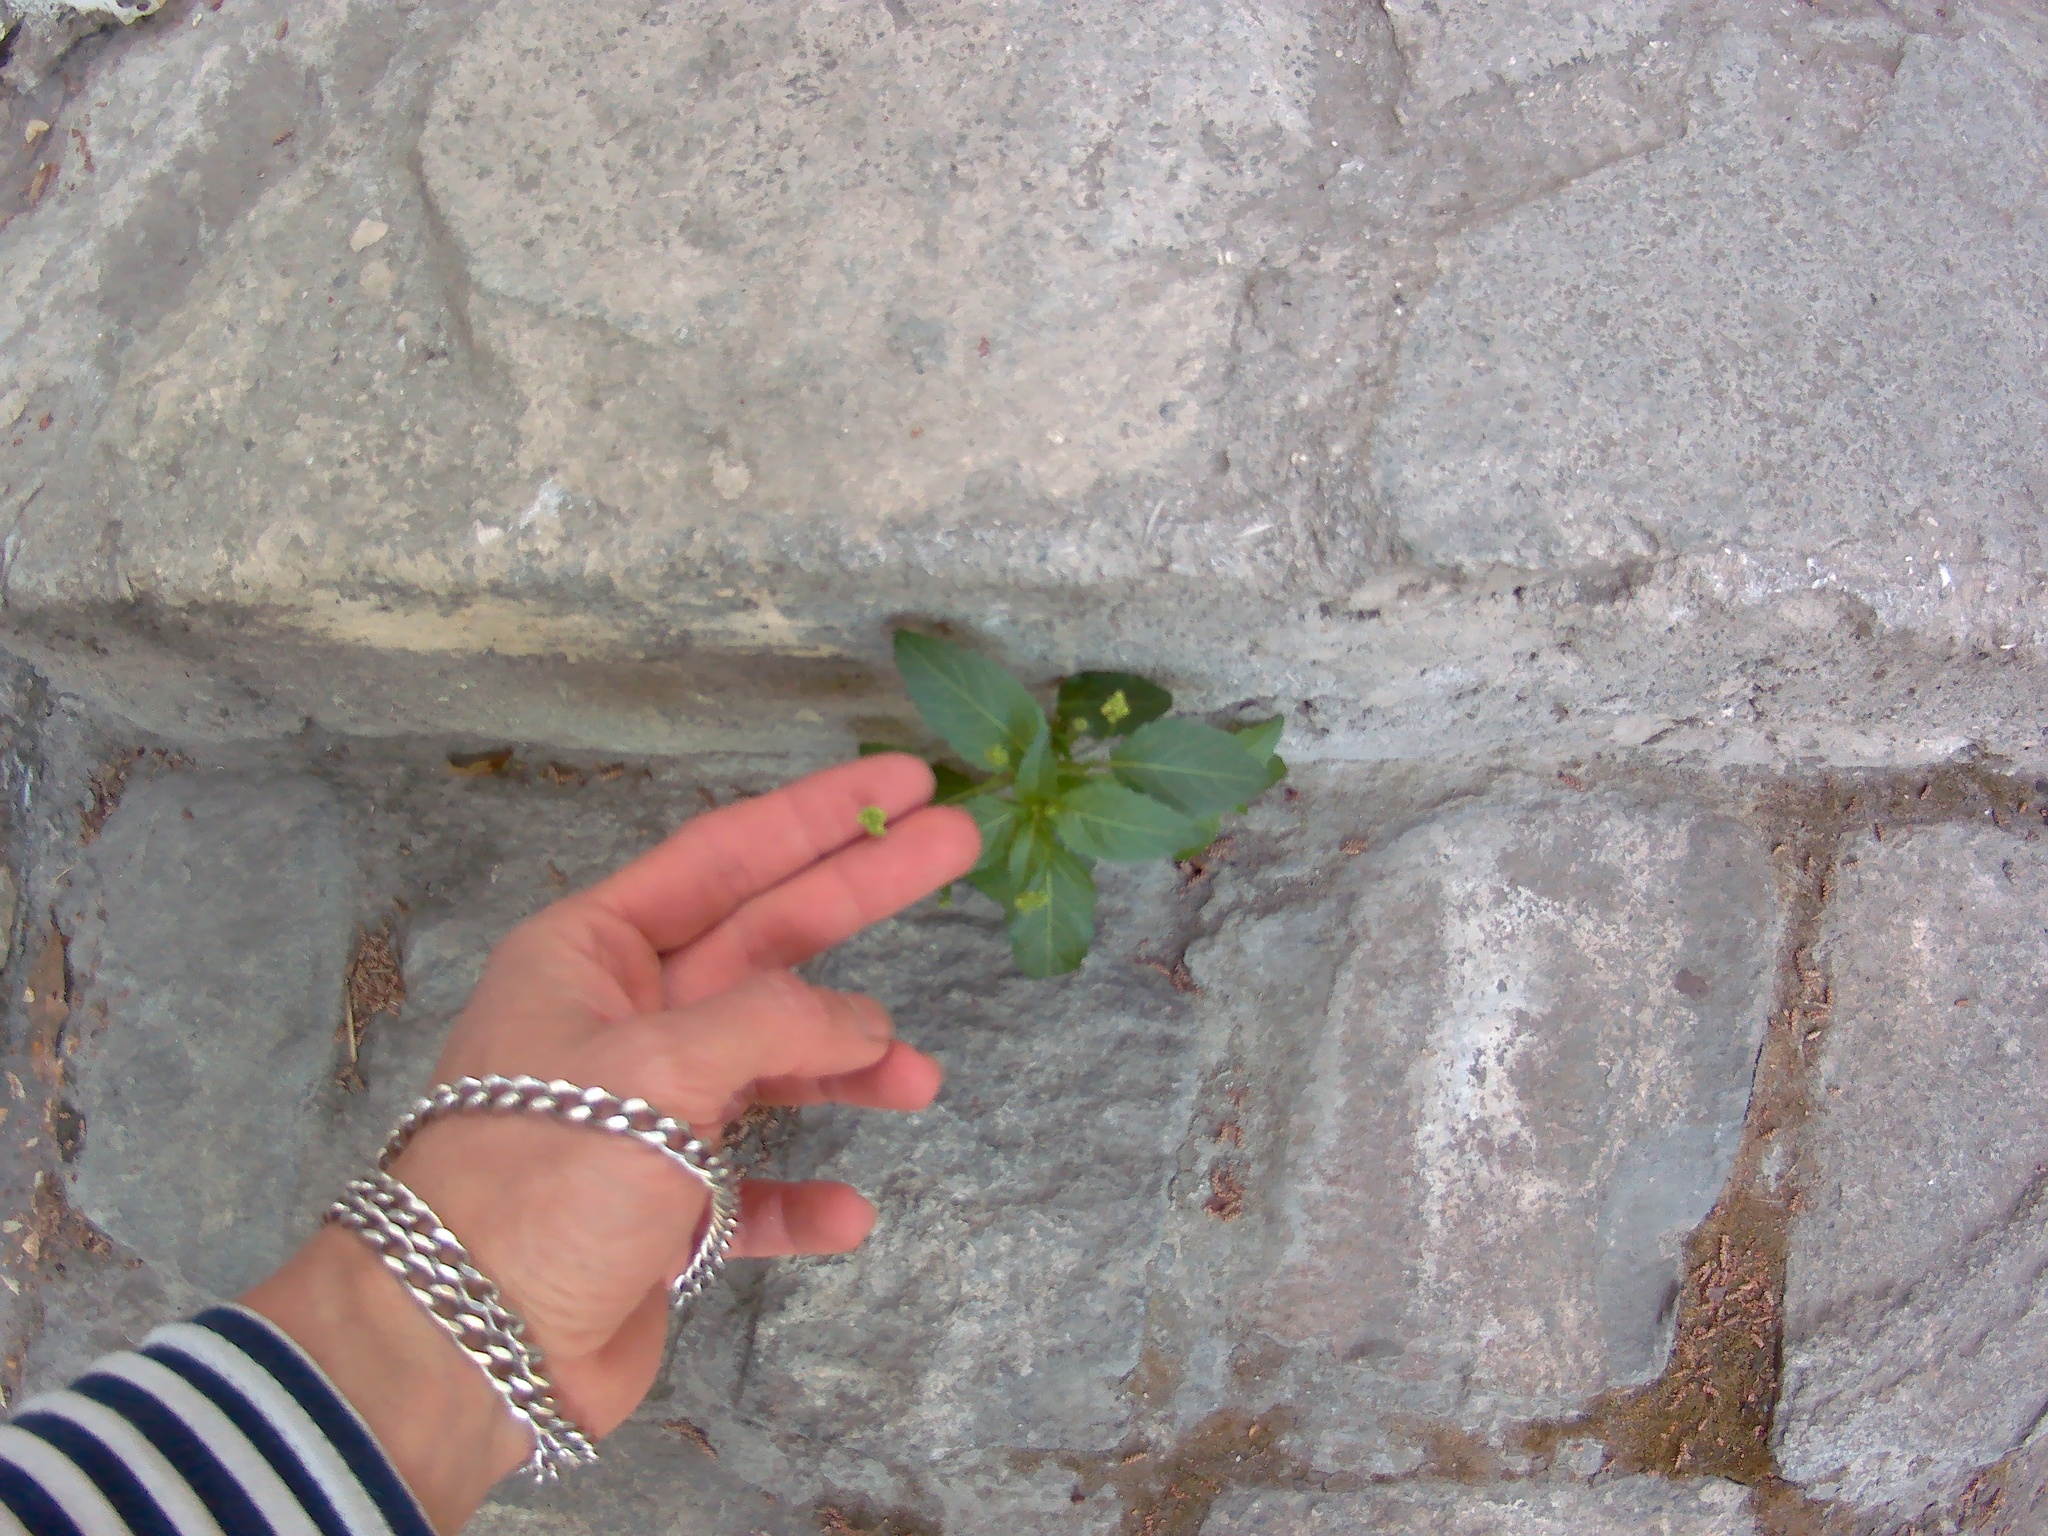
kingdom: Plantae
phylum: Tracheophyta
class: Magnoliopsida
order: Malpighiales
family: Euphorbiaceae
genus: Mercurialis
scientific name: Mercurialis annua
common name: Annual mercury
